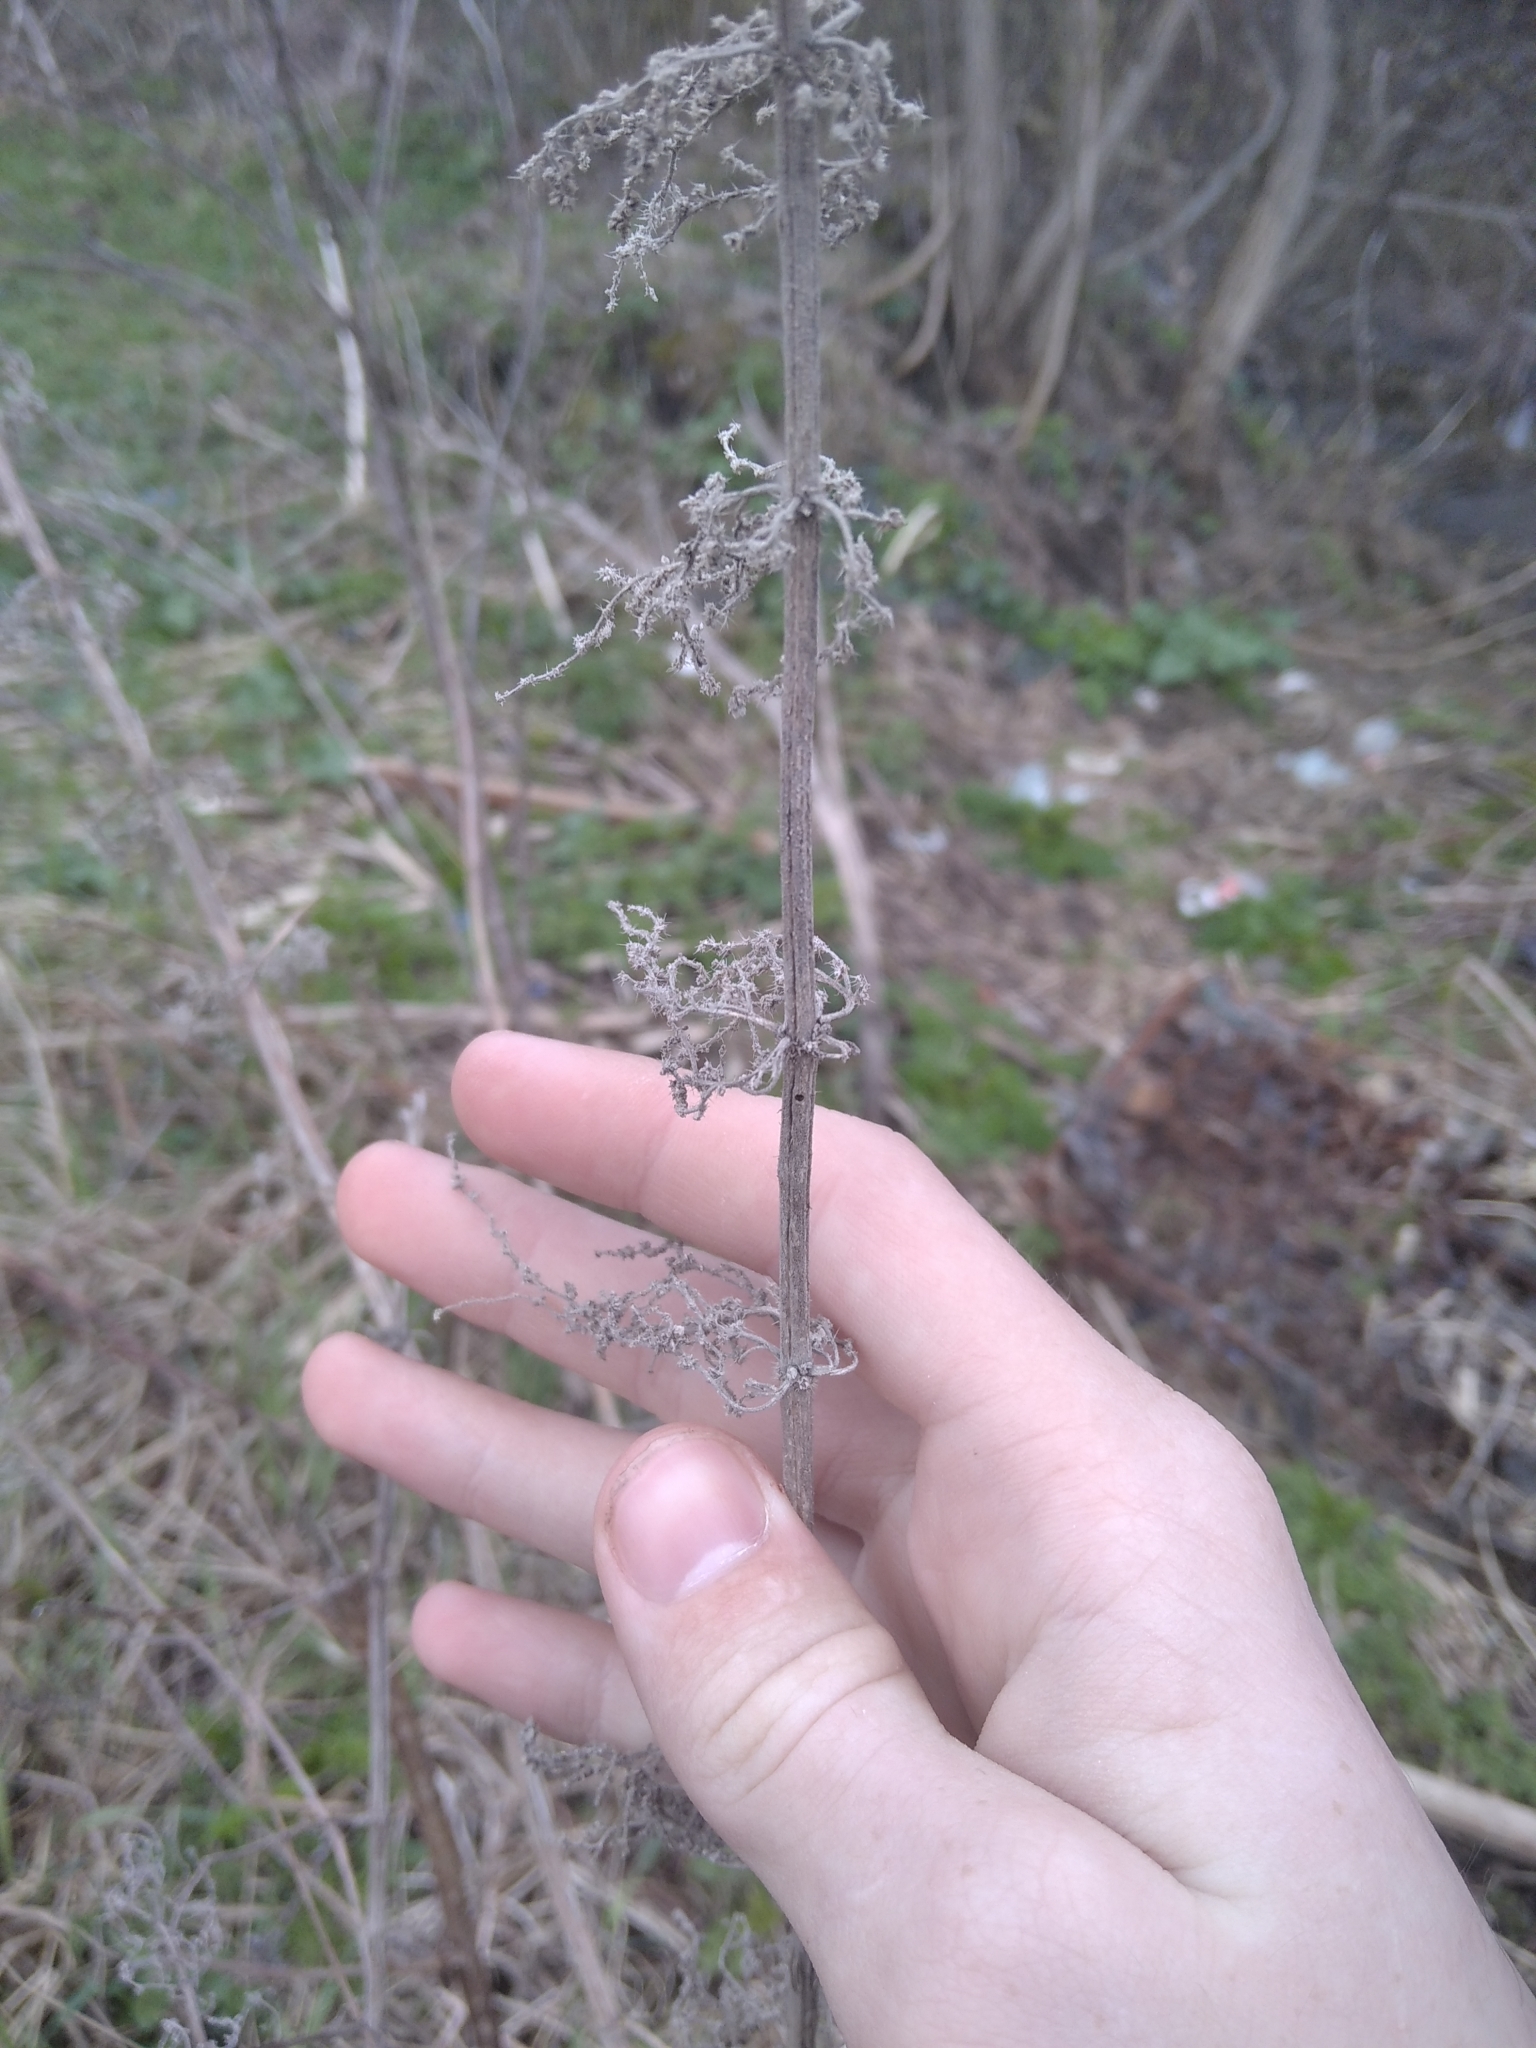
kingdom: Plantae
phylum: Tracheophyta
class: Magnoliopsida
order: Rosales
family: Urticaceae
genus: Urtica
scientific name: Urtica dioica
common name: Common nettle
